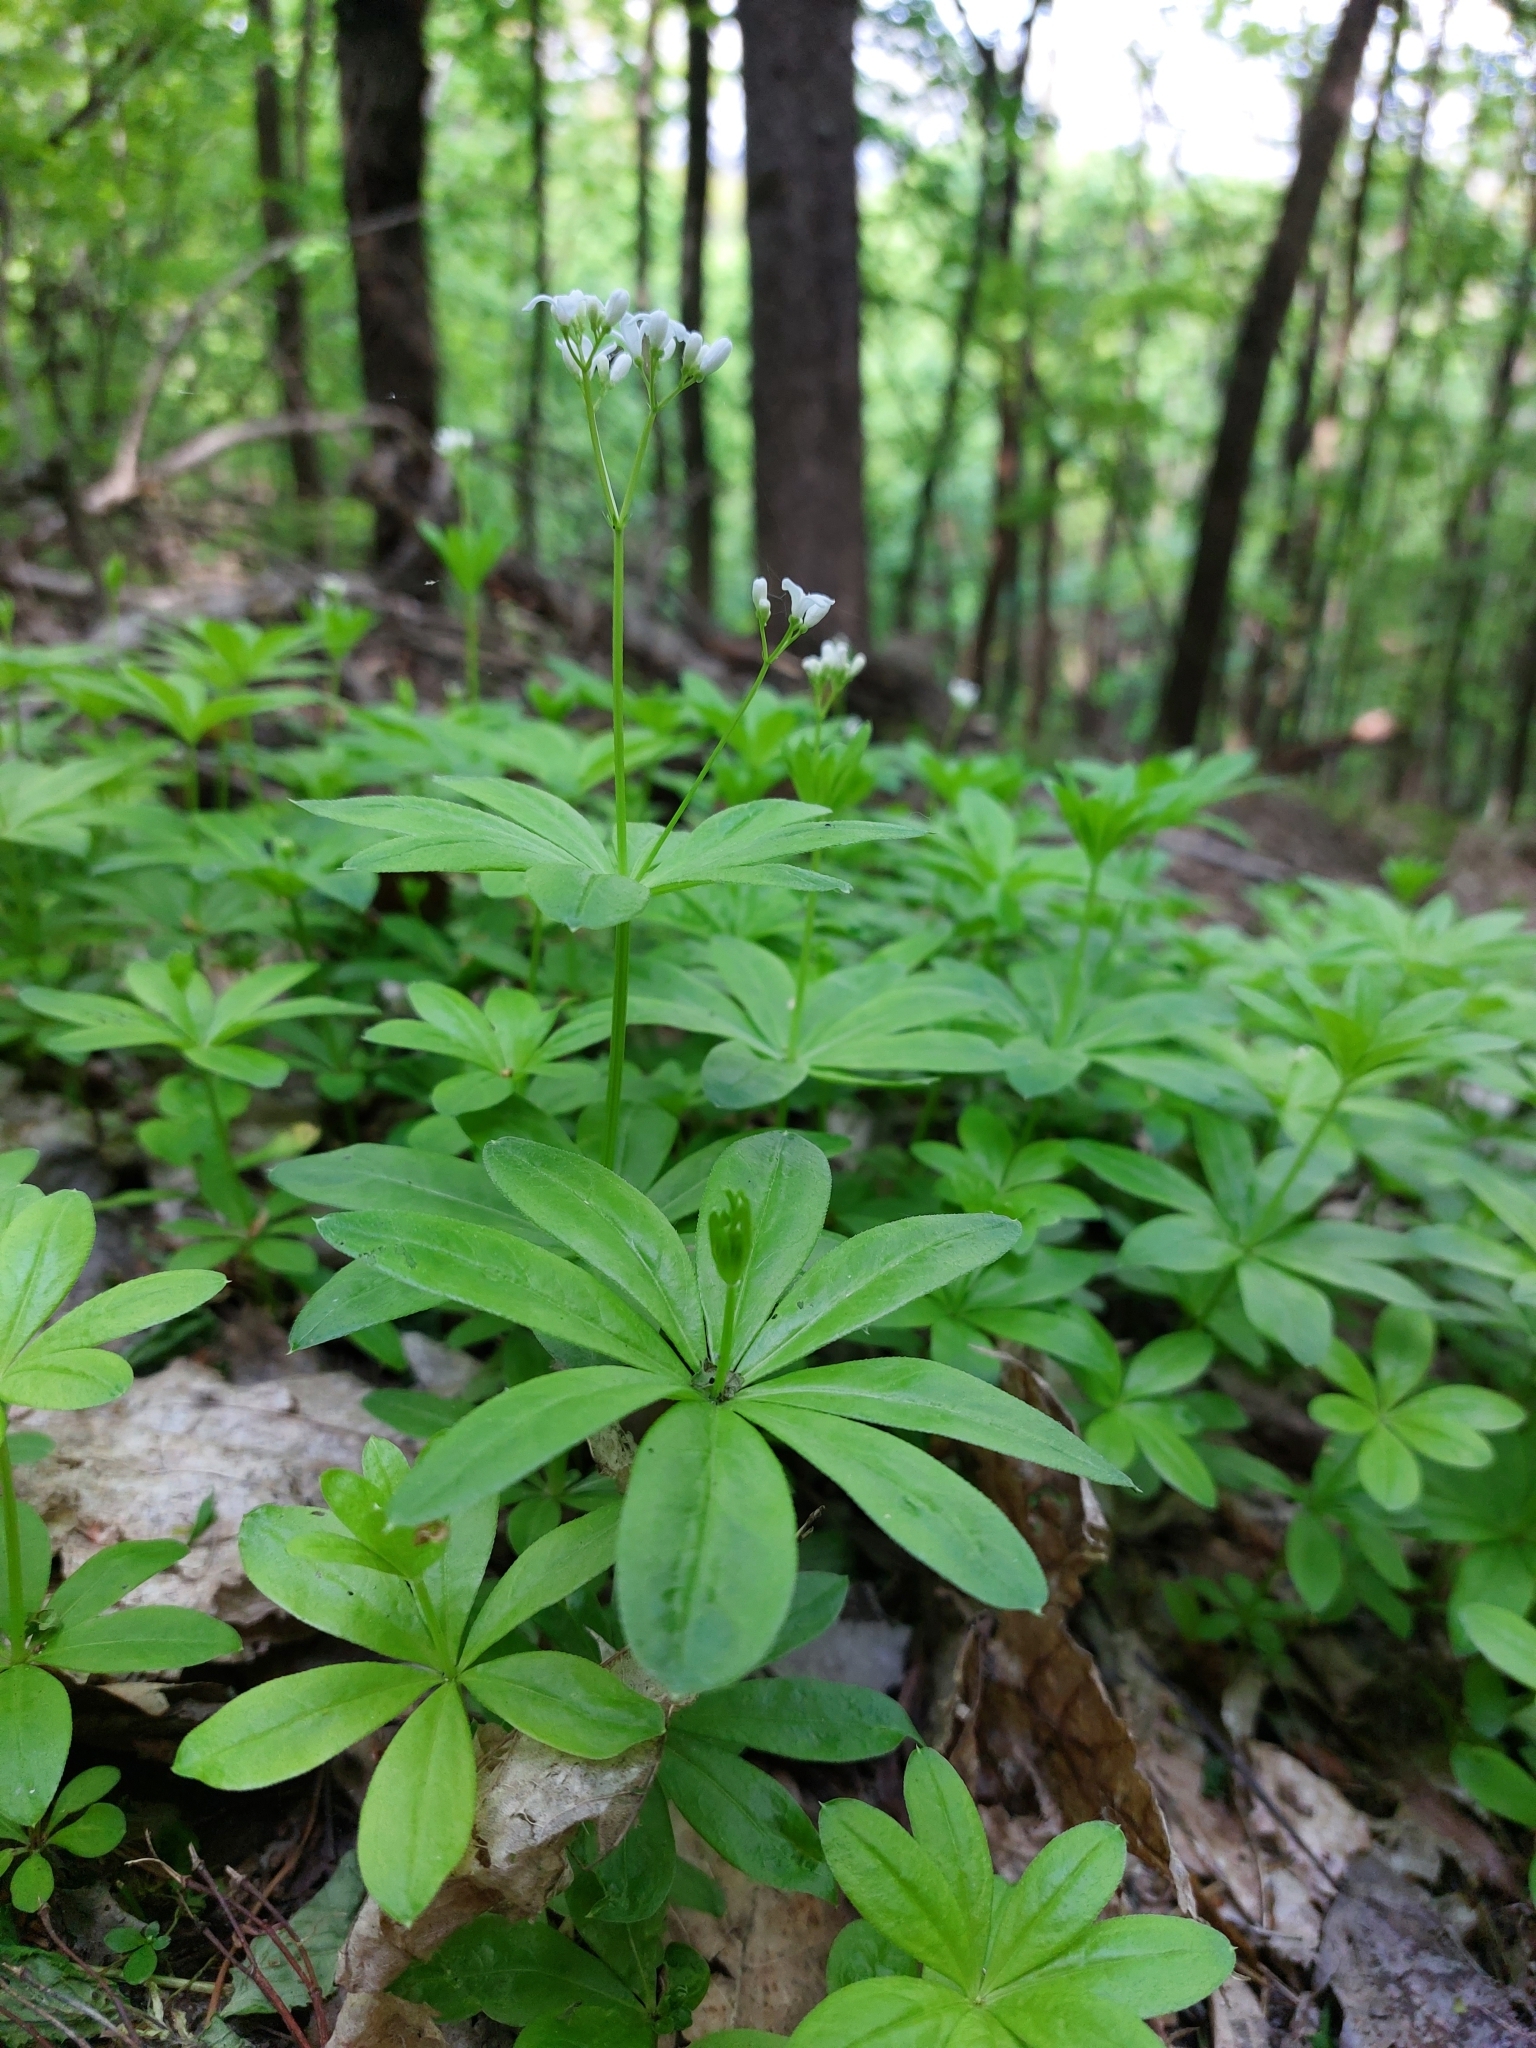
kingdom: Plantae
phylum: Tracheophyta
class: Magnoliopsida
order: Gentianales
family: Rubiaceae
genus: Galium
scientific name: Galium odoratum
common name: Sweet woodruff
